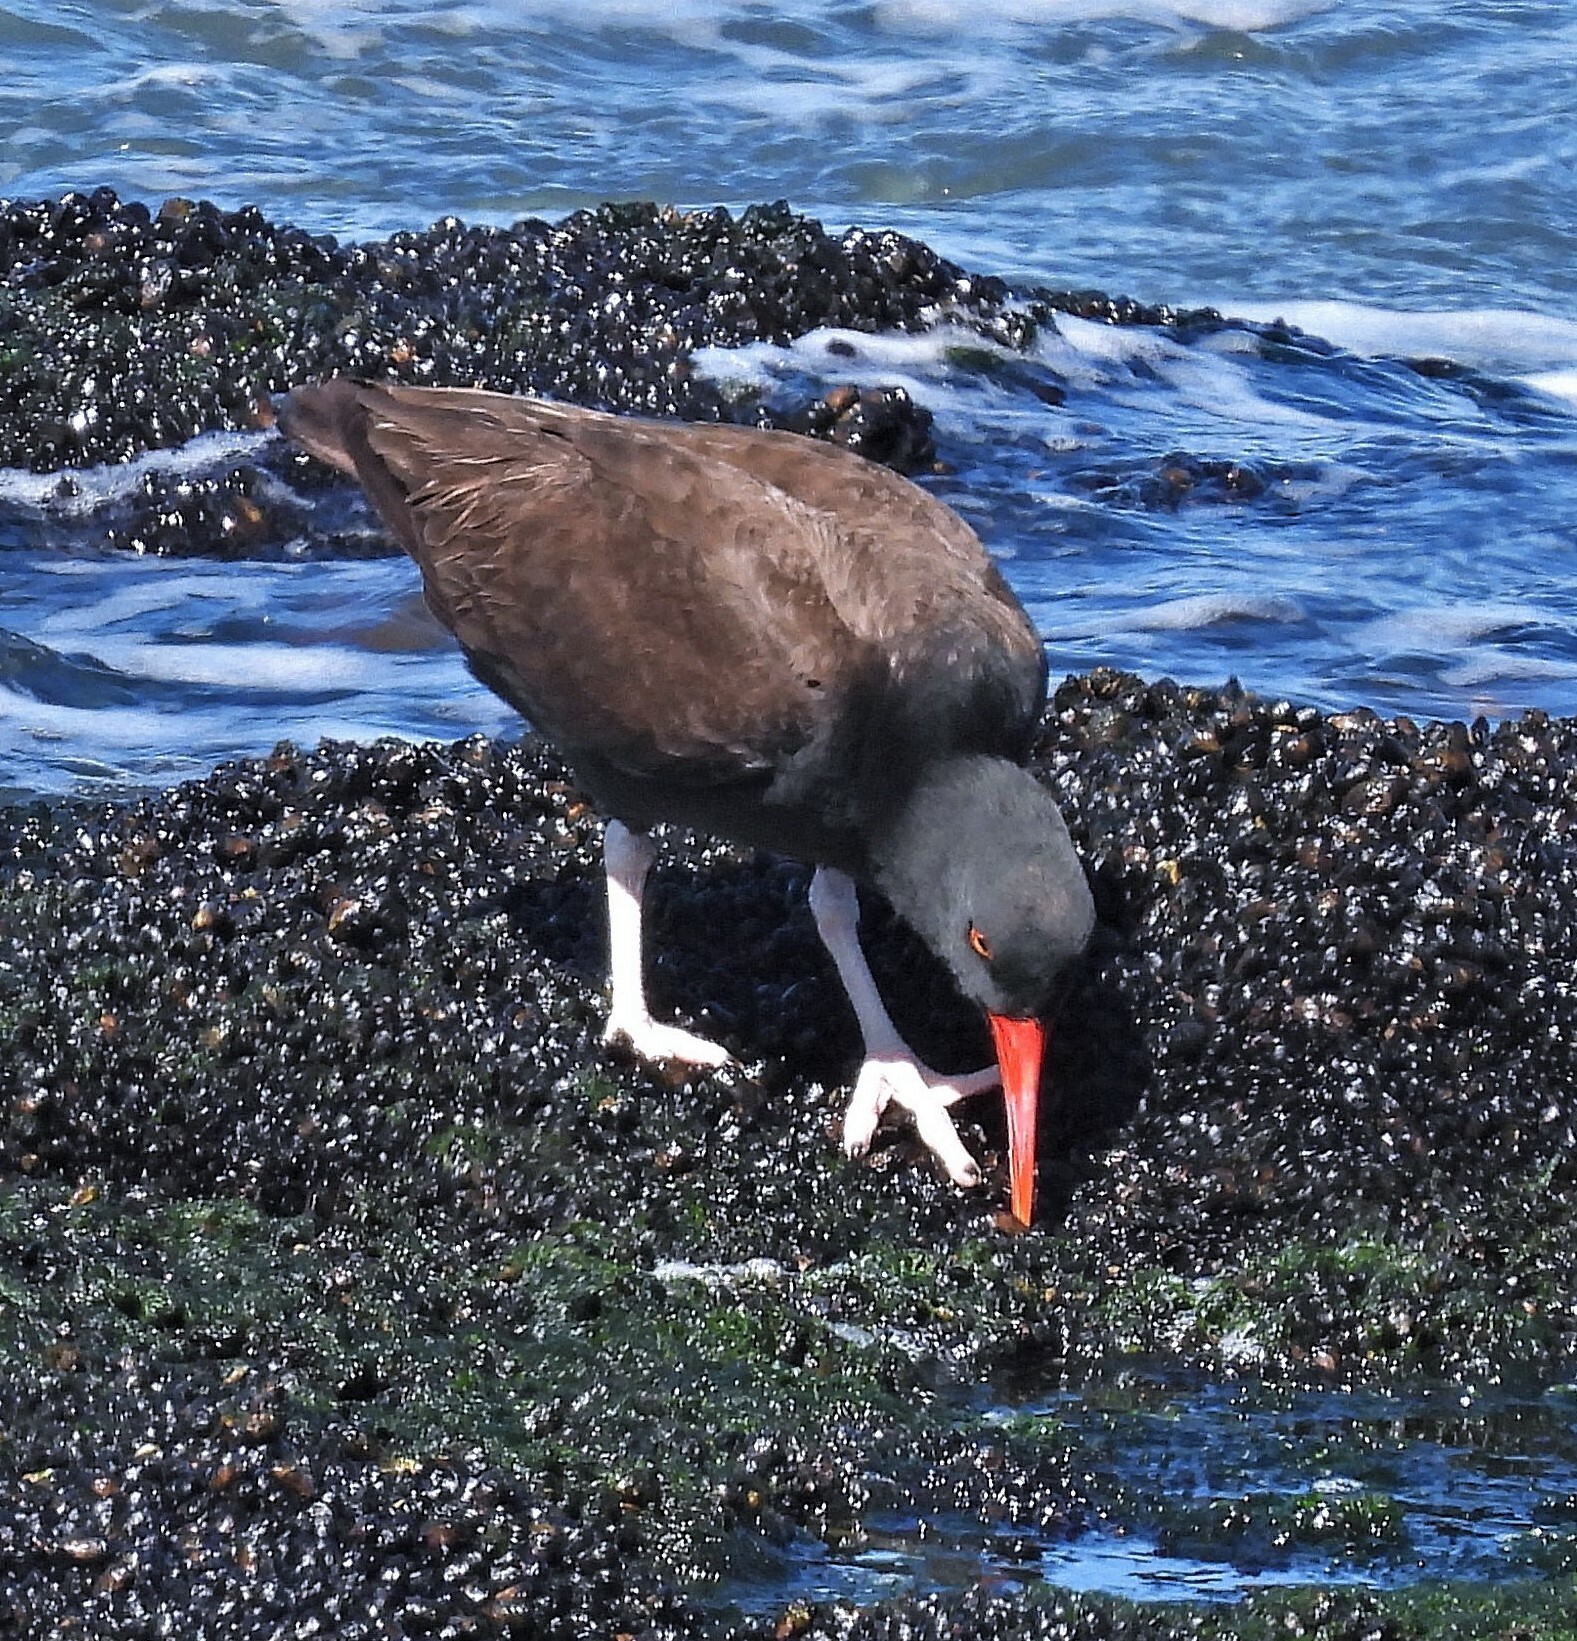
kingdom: Animalia
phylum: Chordata
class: Aves
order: Charadriiformes
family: Haematopodidae
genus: Haematopus
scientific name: Haematopus ater
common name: Blackish oystercatcher
